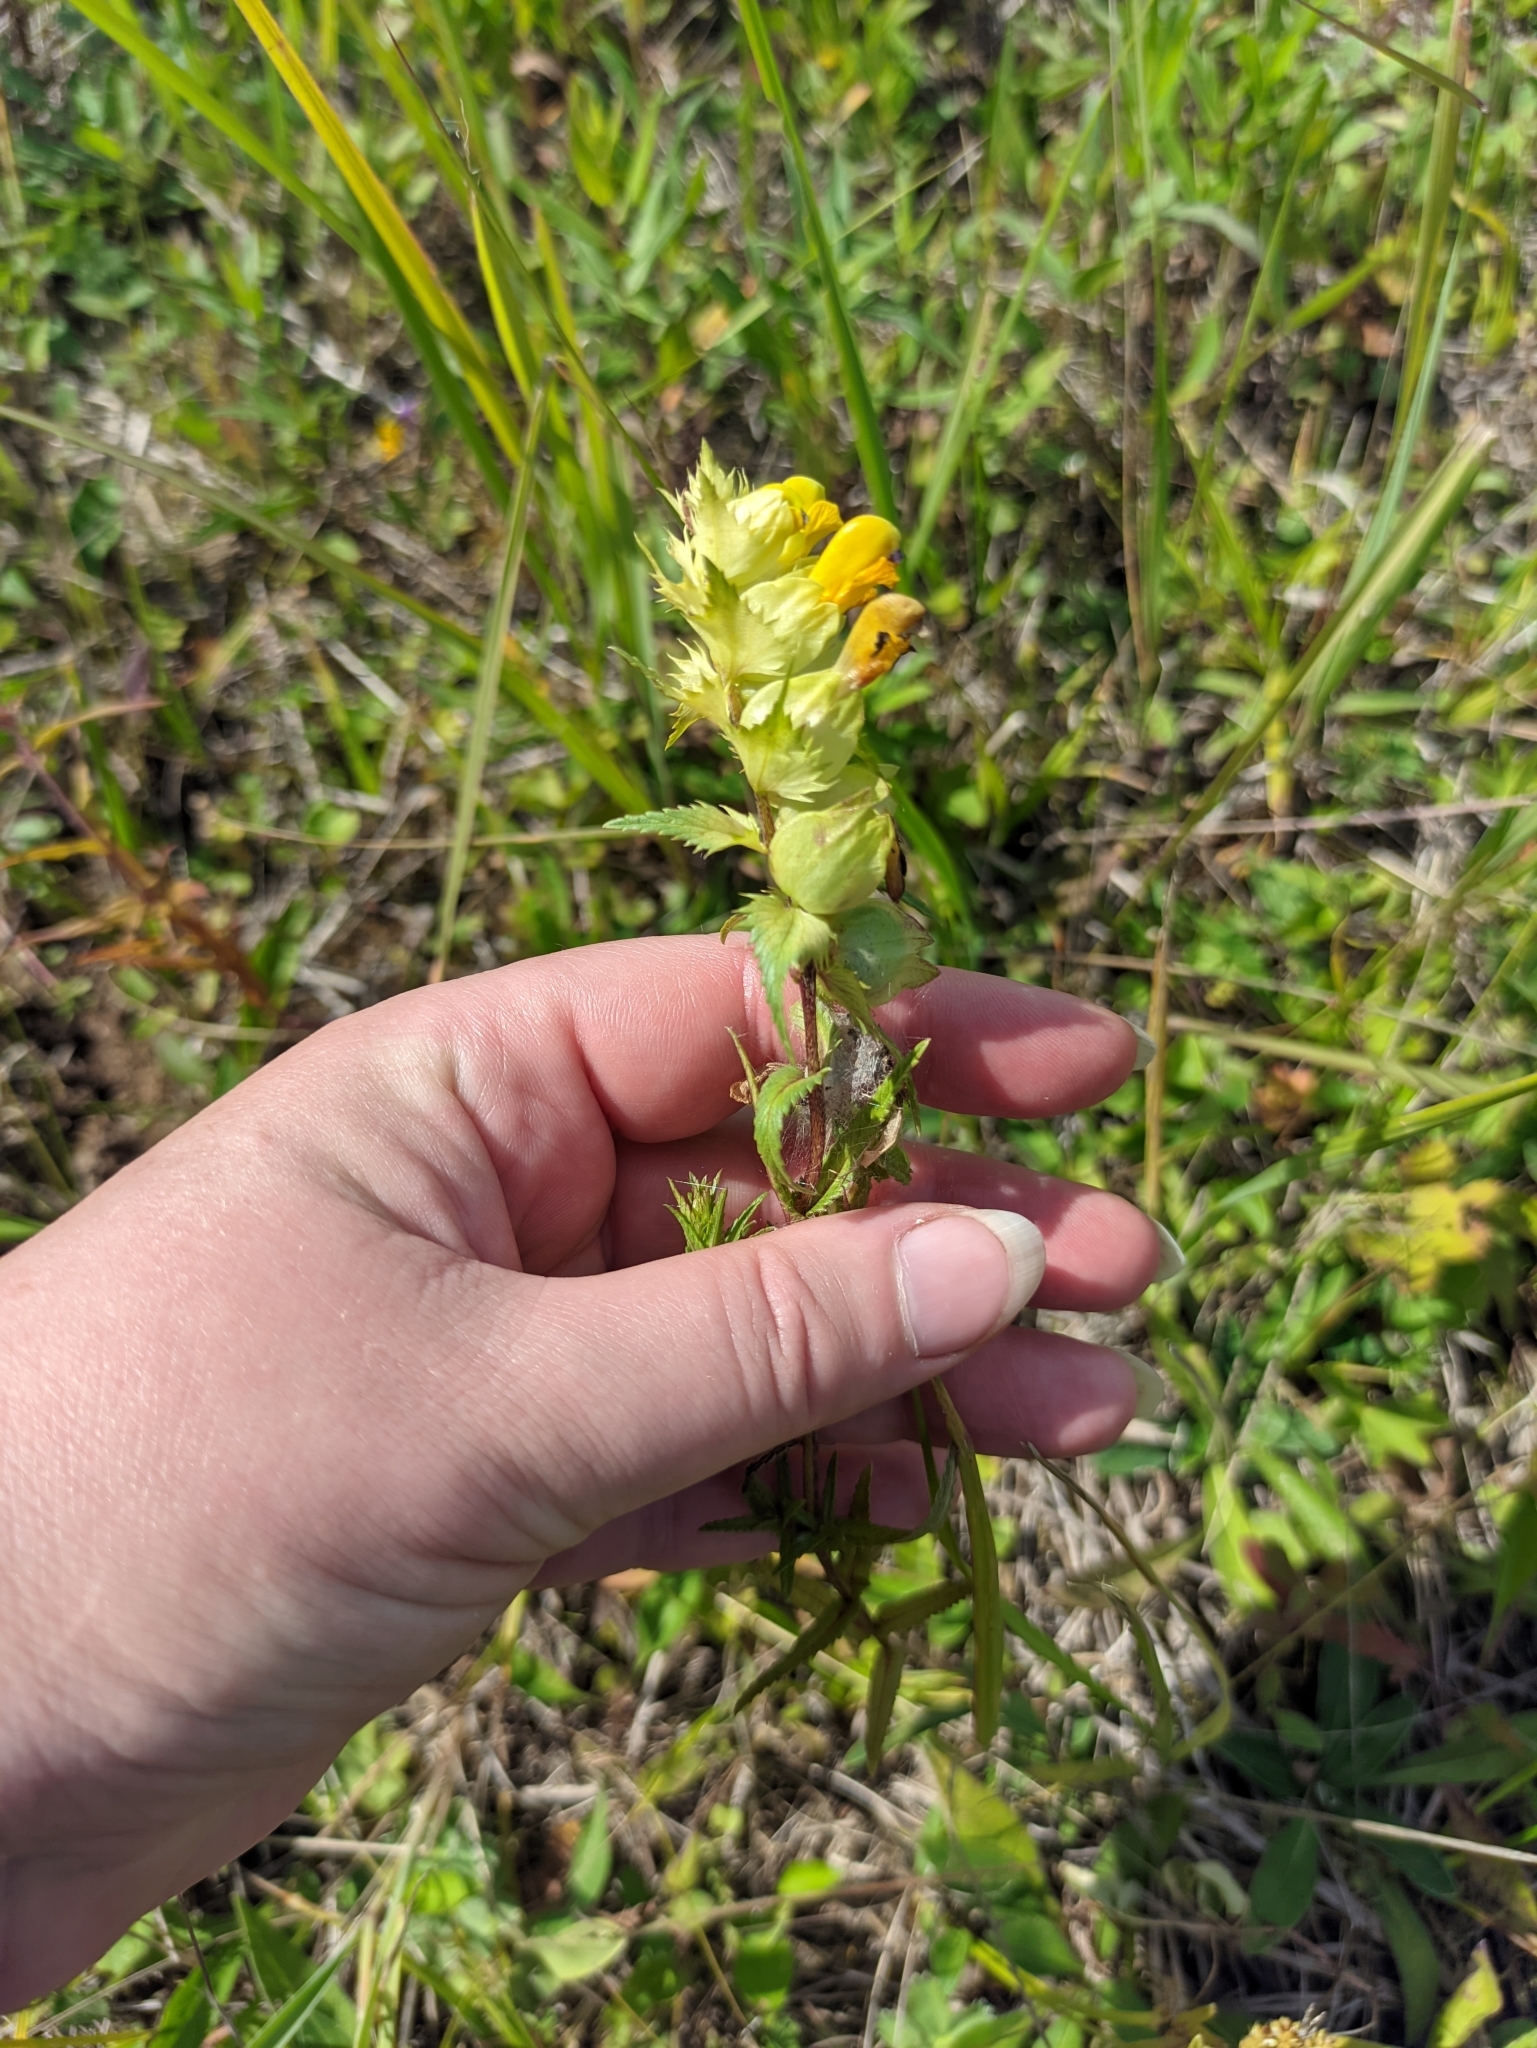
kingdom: Plantae
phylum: Tracheophyta
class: Magnoliopsida
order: Lamiales
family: Orobanchaceae
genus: Rhinanthus
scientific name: Rhinanthus serotinus
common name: Late-flowering yellow rattle
